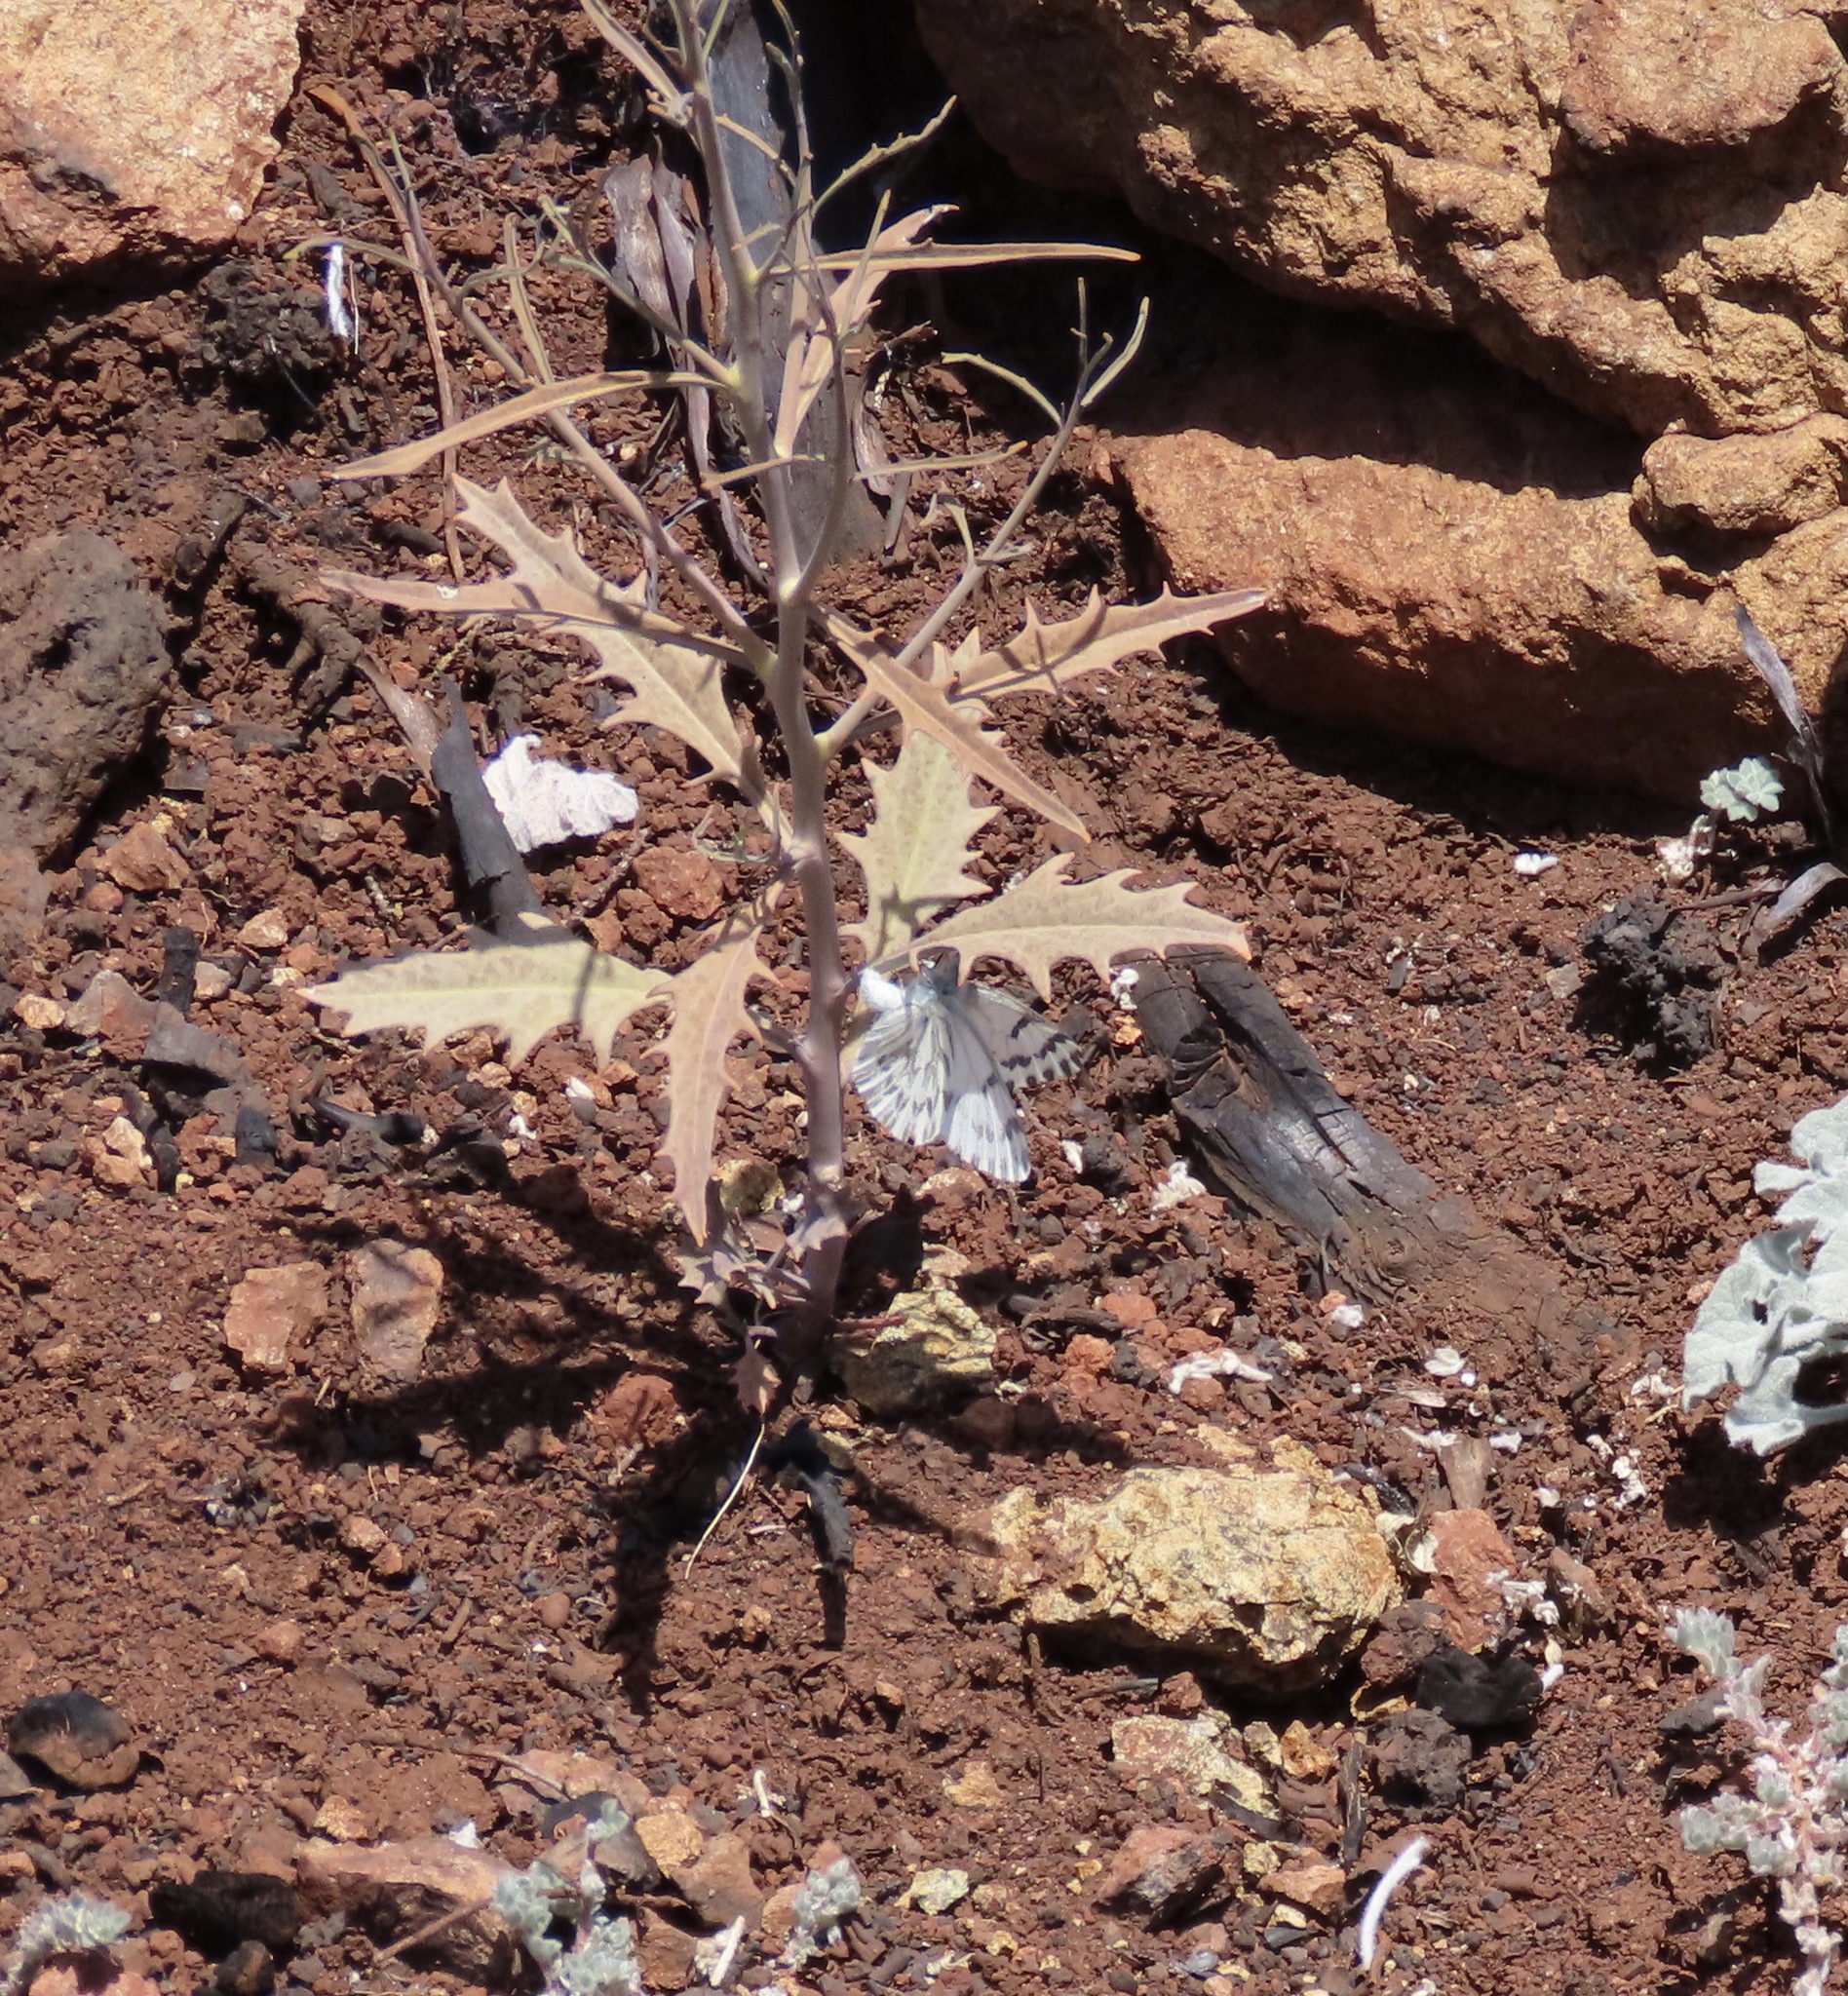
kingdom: Animalia
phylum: Arthropoda
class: Insecta
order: Lepidoptera
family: Pieridae
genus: Pontia
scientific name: Pontia sisymbrii
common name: California white
